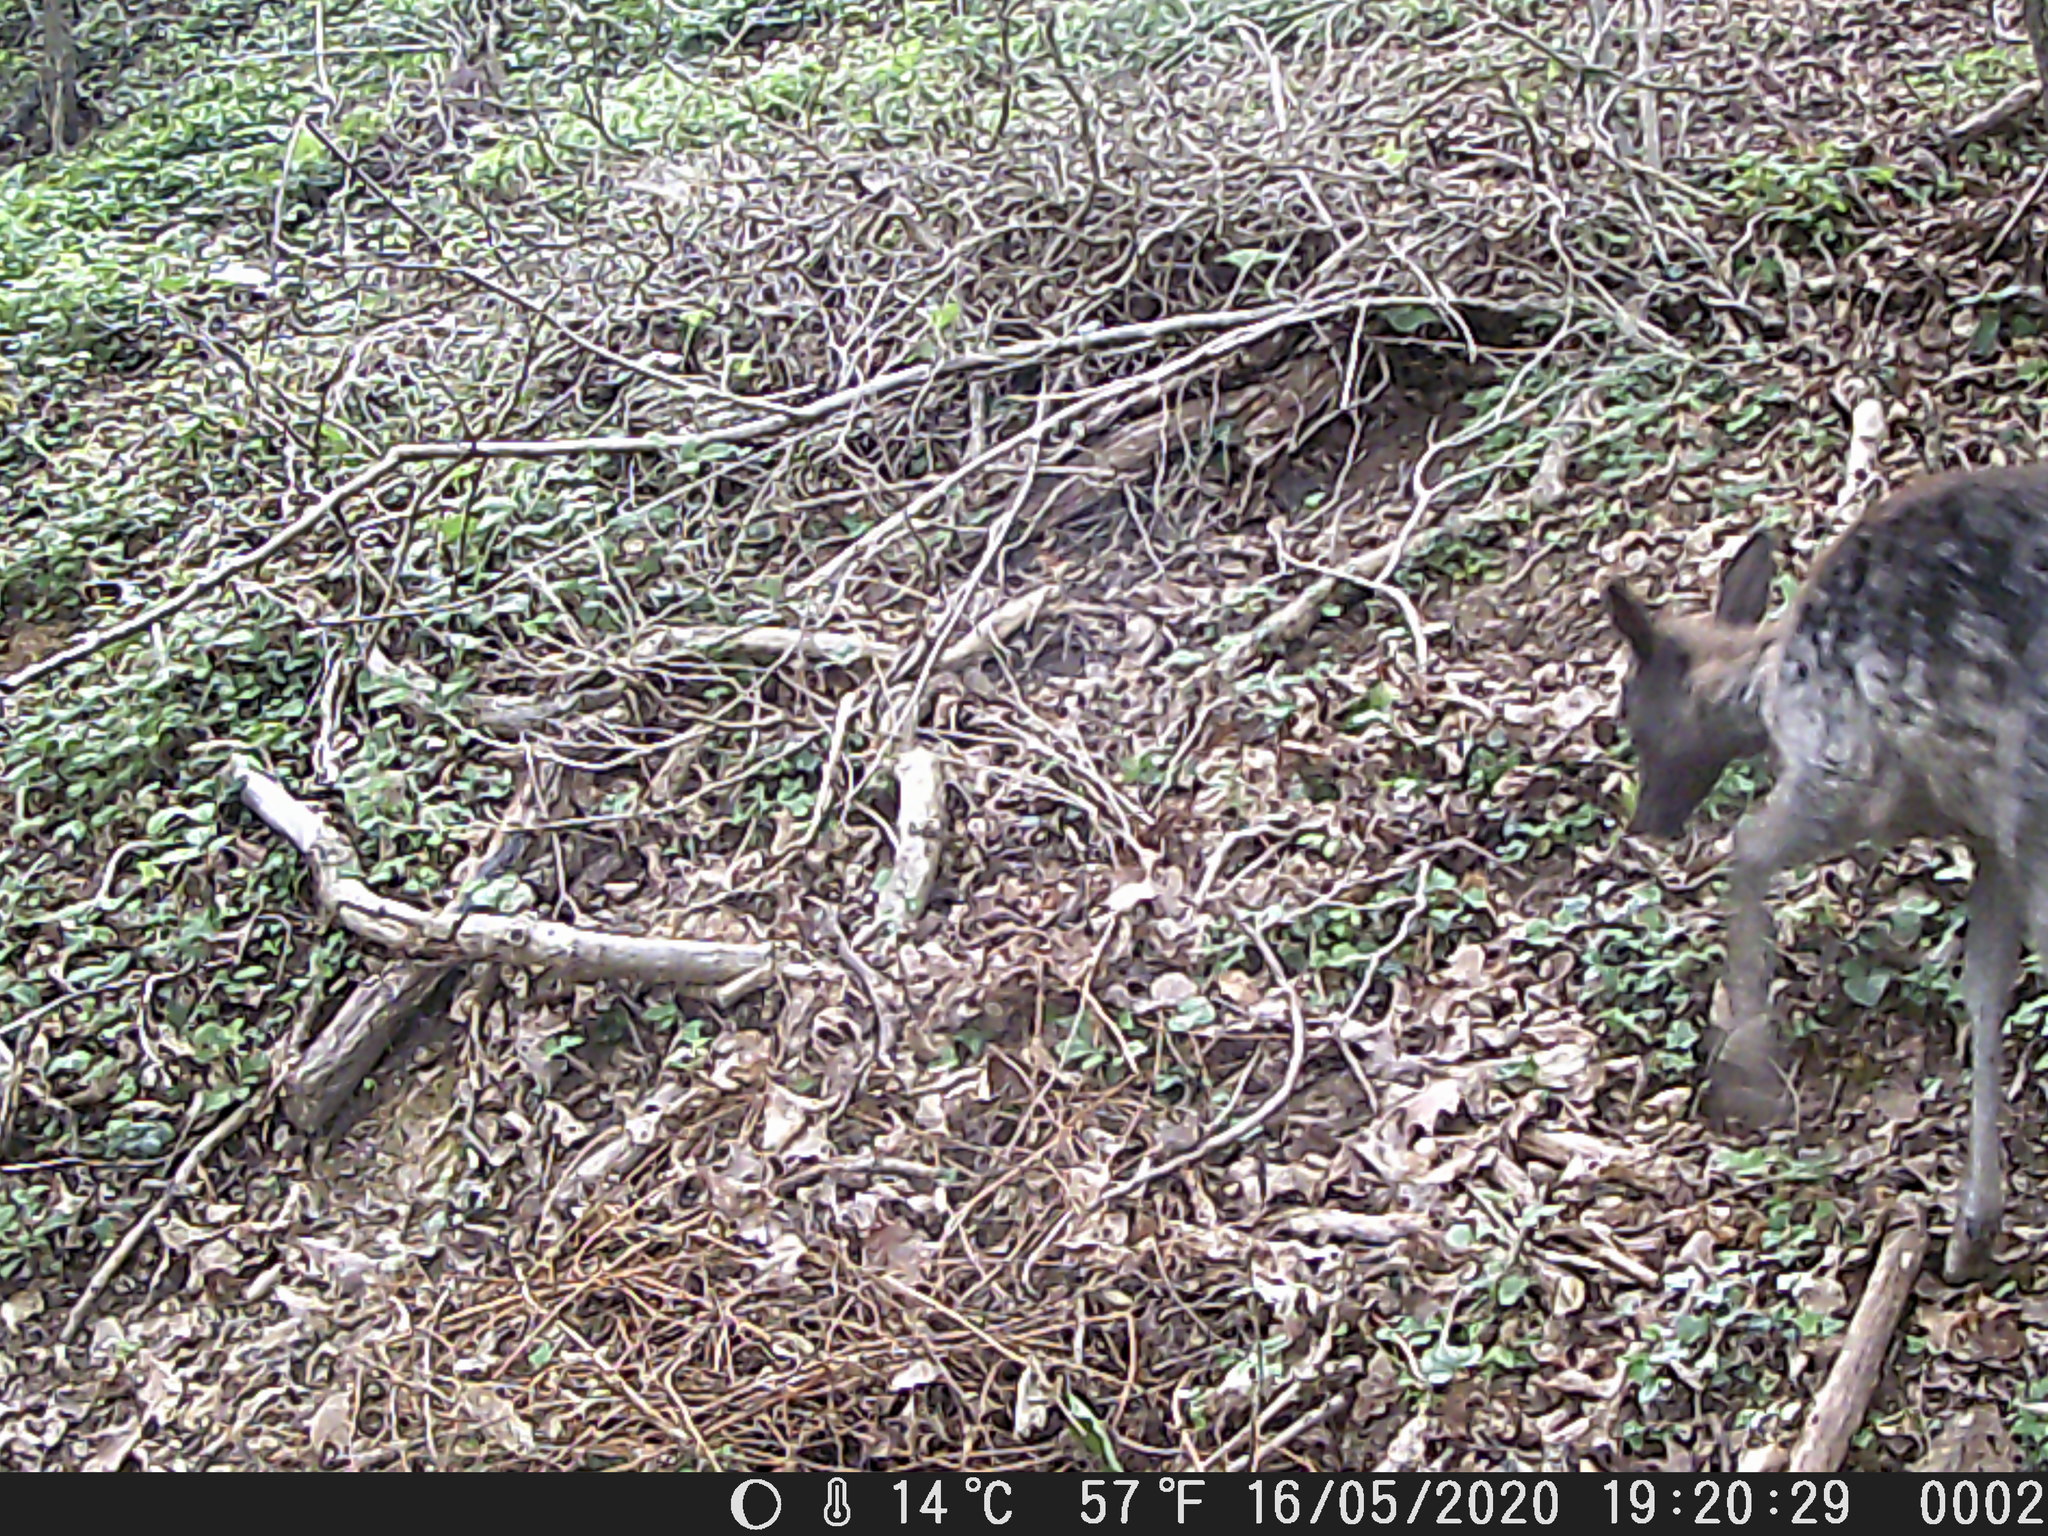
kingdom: Animalia
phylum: Chordata
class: Mammalia
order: Artiodactyla
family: Cervidae
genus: Dama
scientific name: Dama dama
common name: Fallow deer
